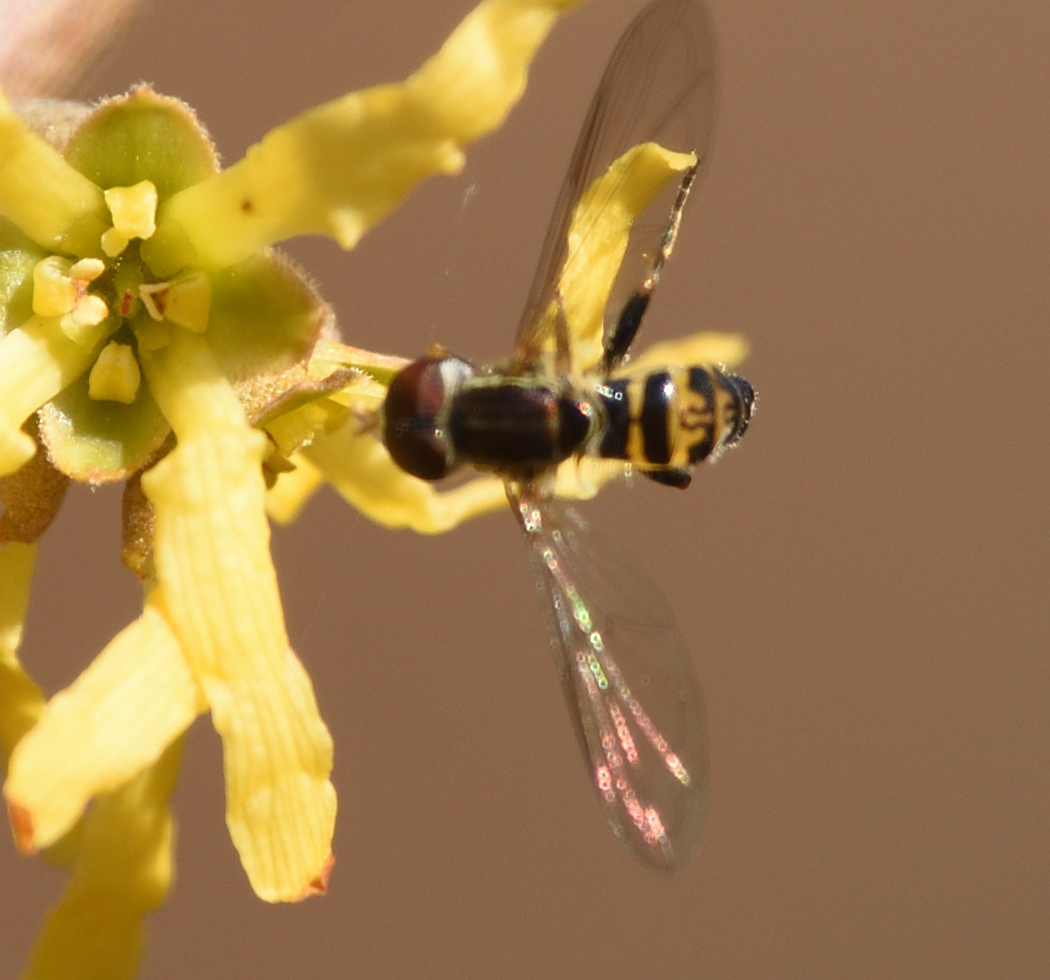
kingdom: Animalia
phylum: Arthropoda
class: Insecta
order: Diptera
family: Syrphidae
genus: Toxomerus
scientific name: Toxomerus geminatus
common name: Eastern calligrapher
